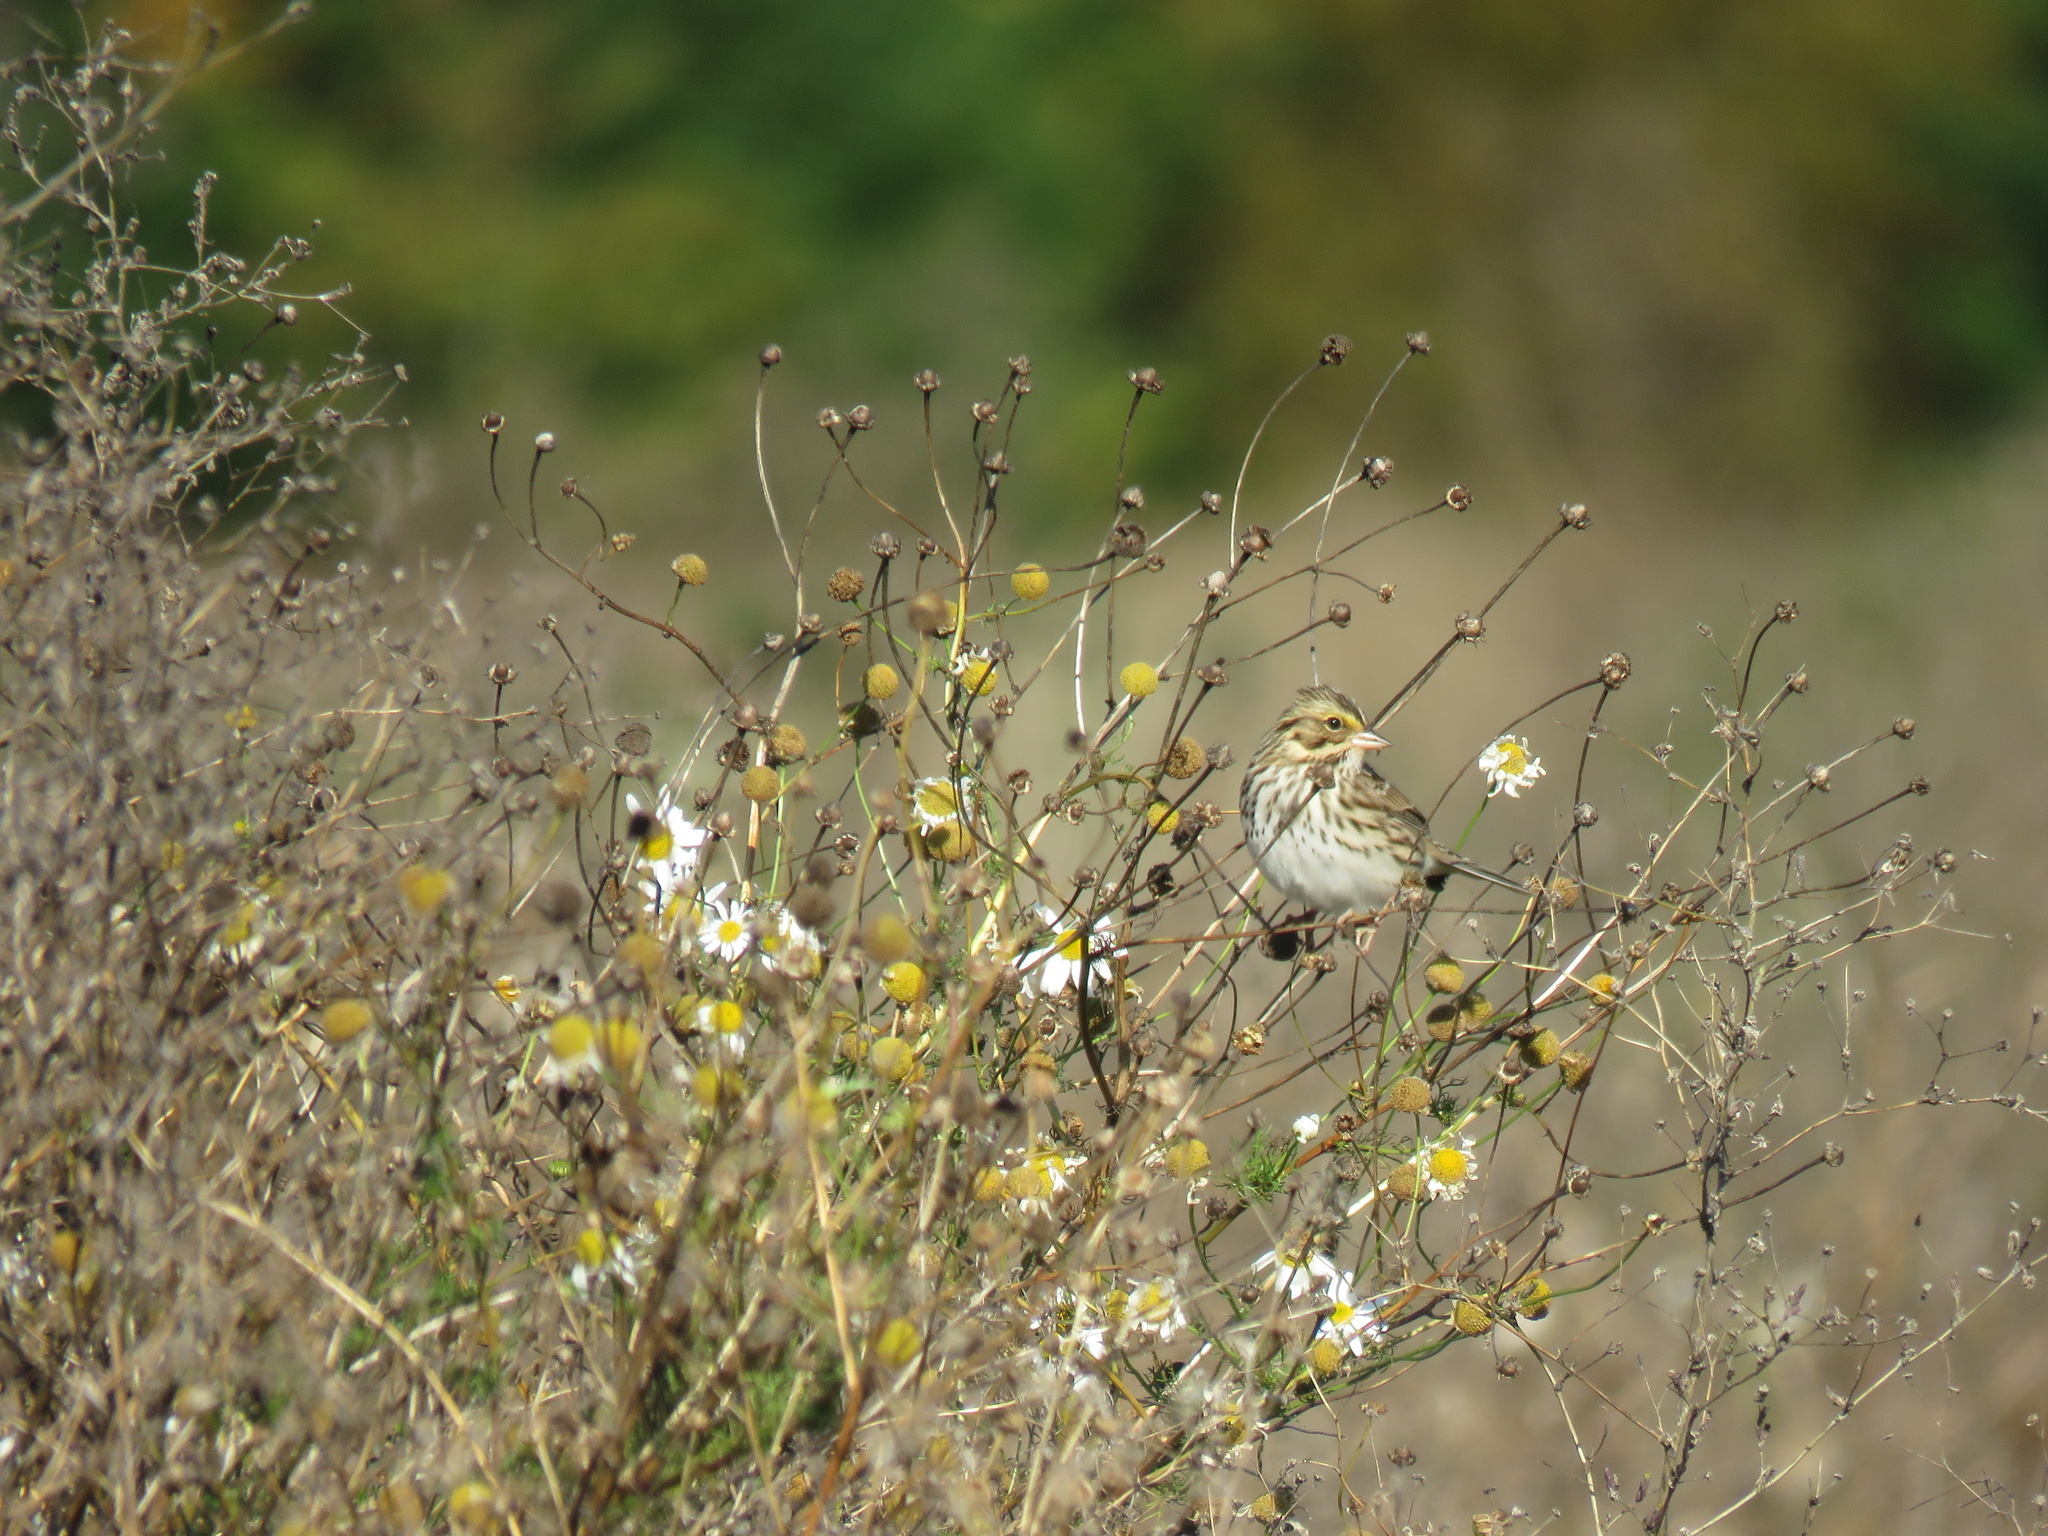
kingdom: Animalia
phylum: Chordata
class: Aves
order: Passeriformes
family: Passerellidae
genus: Passerculus
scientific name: Passerculus sandwichensis
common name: Savannah sparrow
